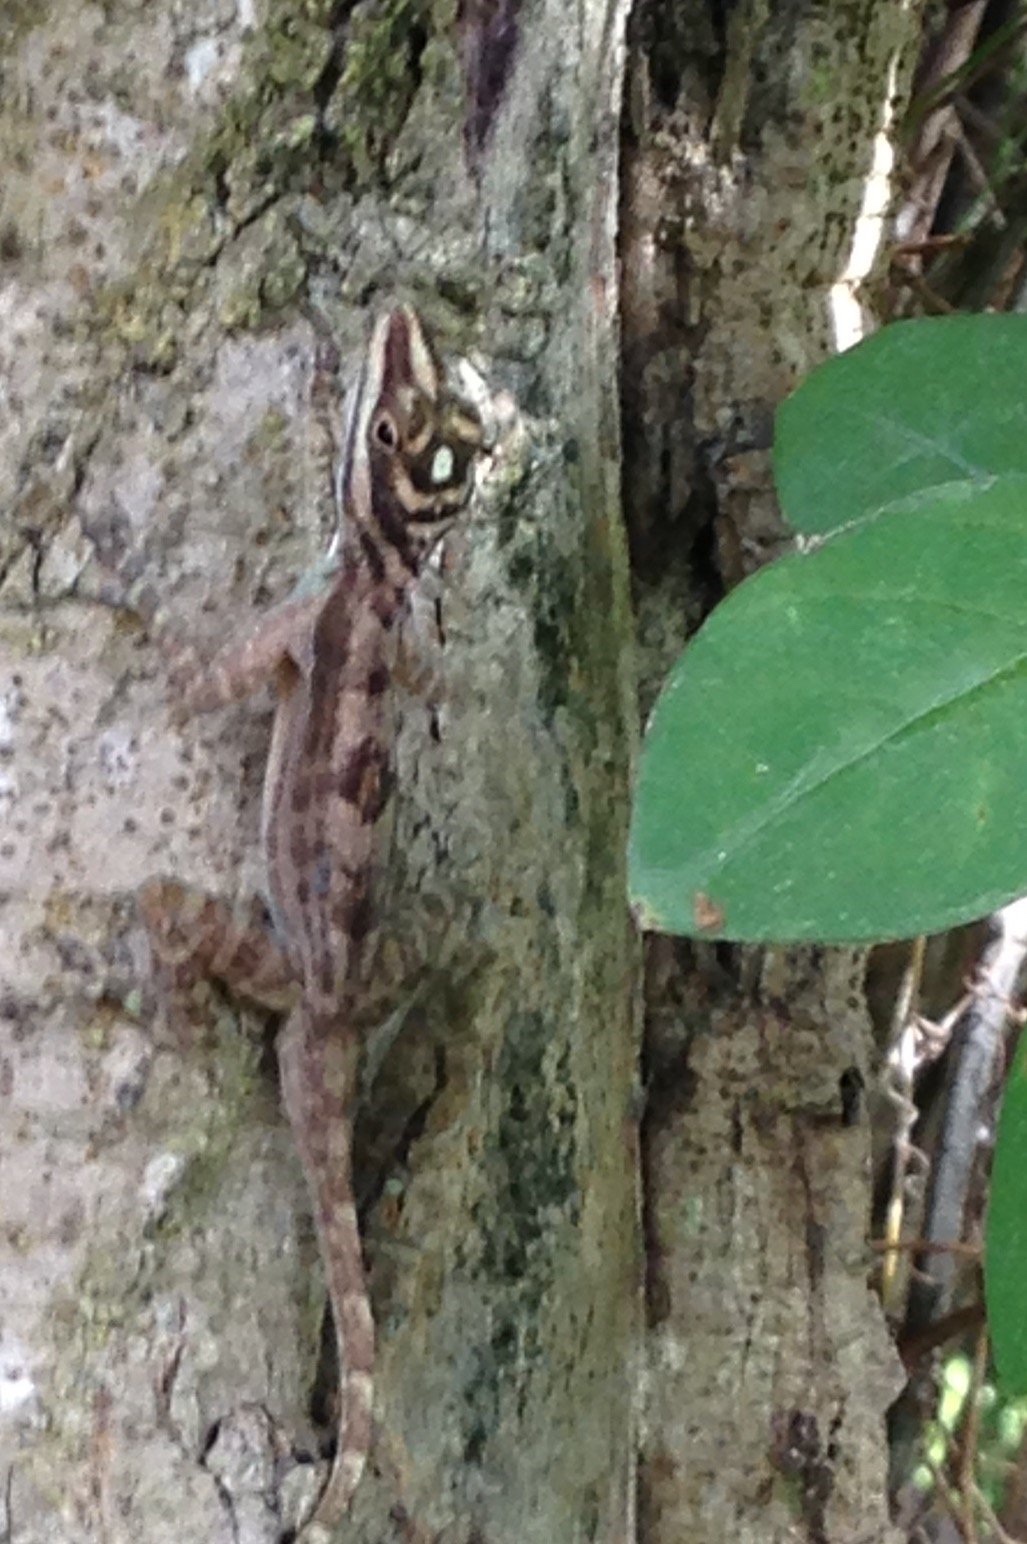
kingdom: Animalia
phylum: Chordata
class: Squamata
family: Dactyloidae
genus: Anolis
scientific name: Anolis lucius
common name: Cave anole
